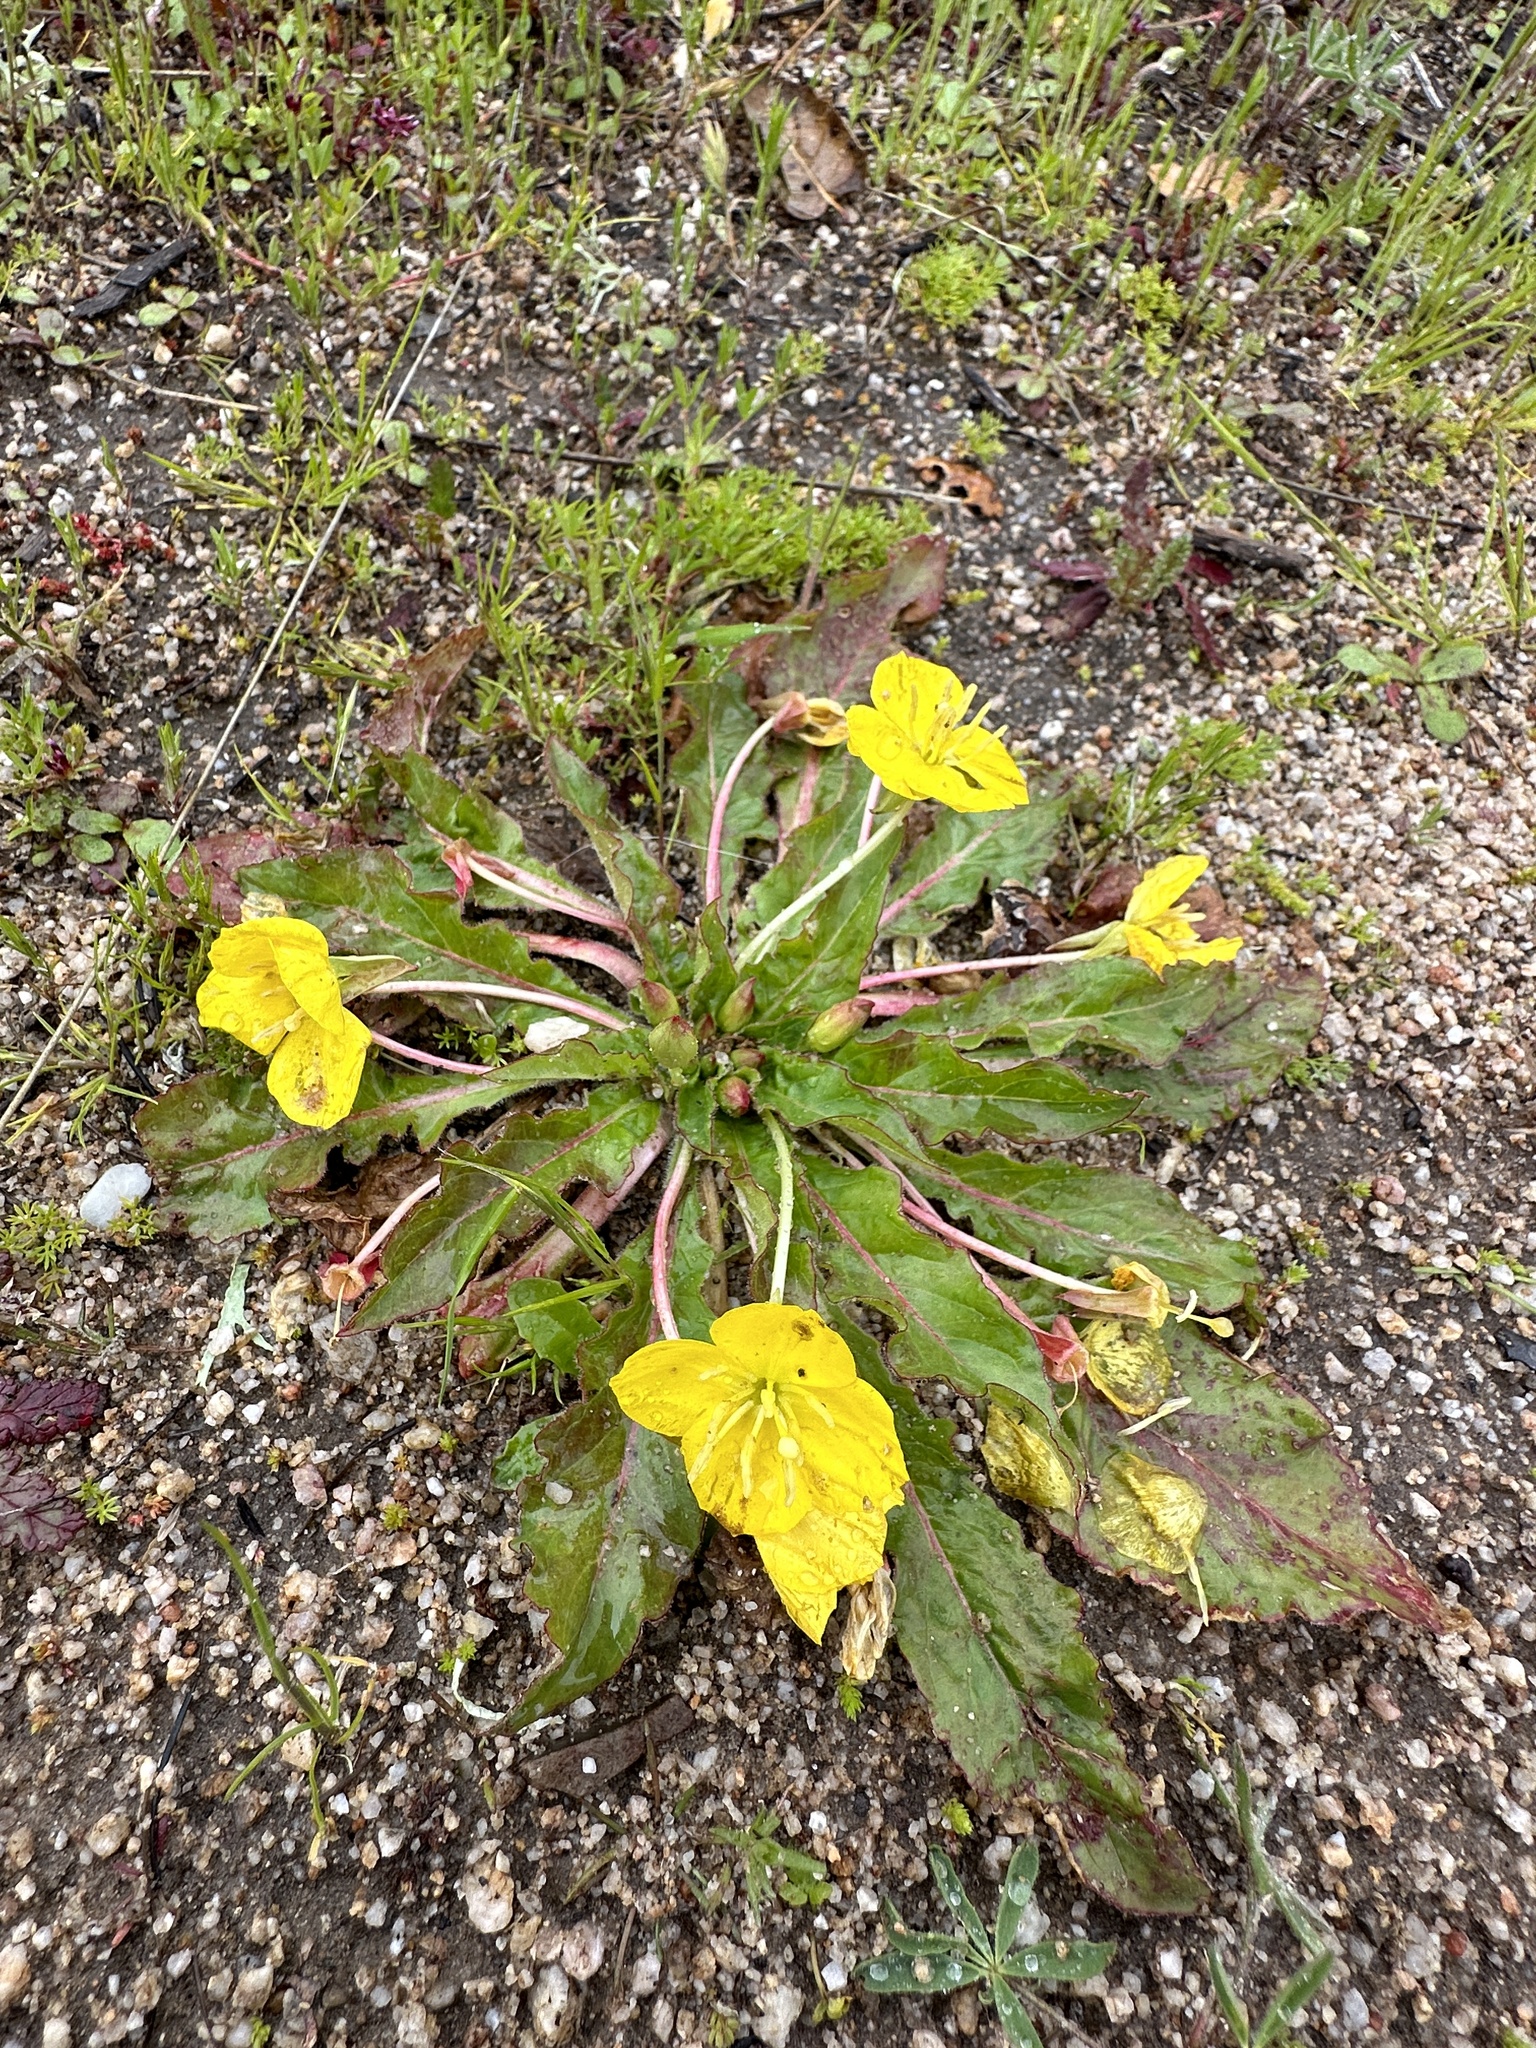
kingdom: Plantae
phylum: Tracheophyta
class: Magnoliopsida
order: Myrtales
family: Onagraceae
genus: Taraxia
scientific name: Taraxia ovata
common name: Goldeneggs
